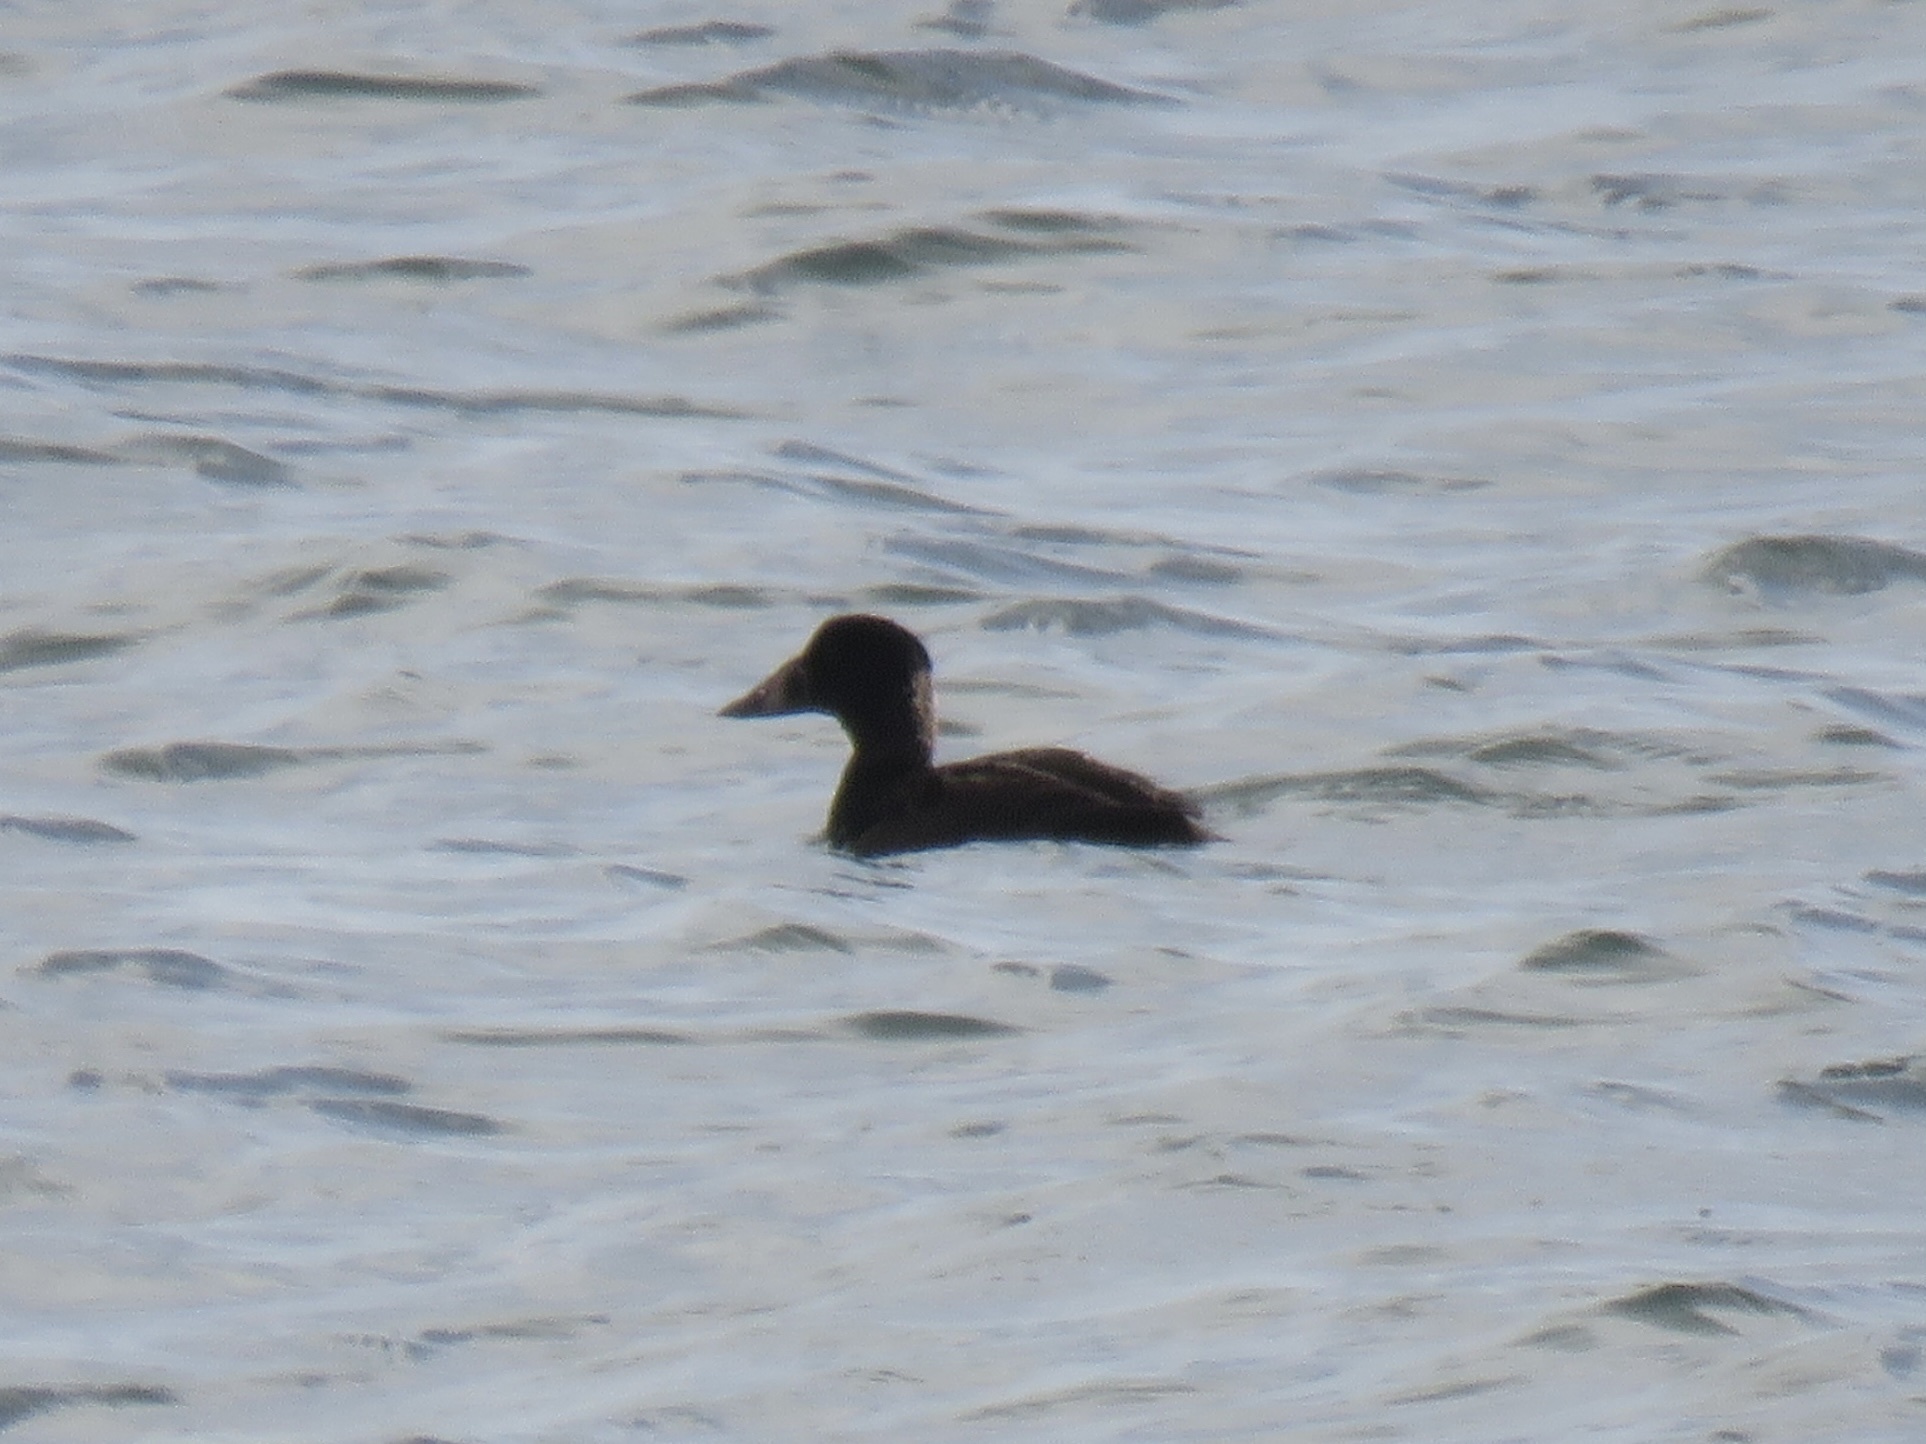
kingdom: Animalia
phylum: Chordata
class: Aves
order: Anseriformes
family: Anatidae
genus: Melanitta
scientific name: Melanitta perspicillata
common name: Surf scoter
